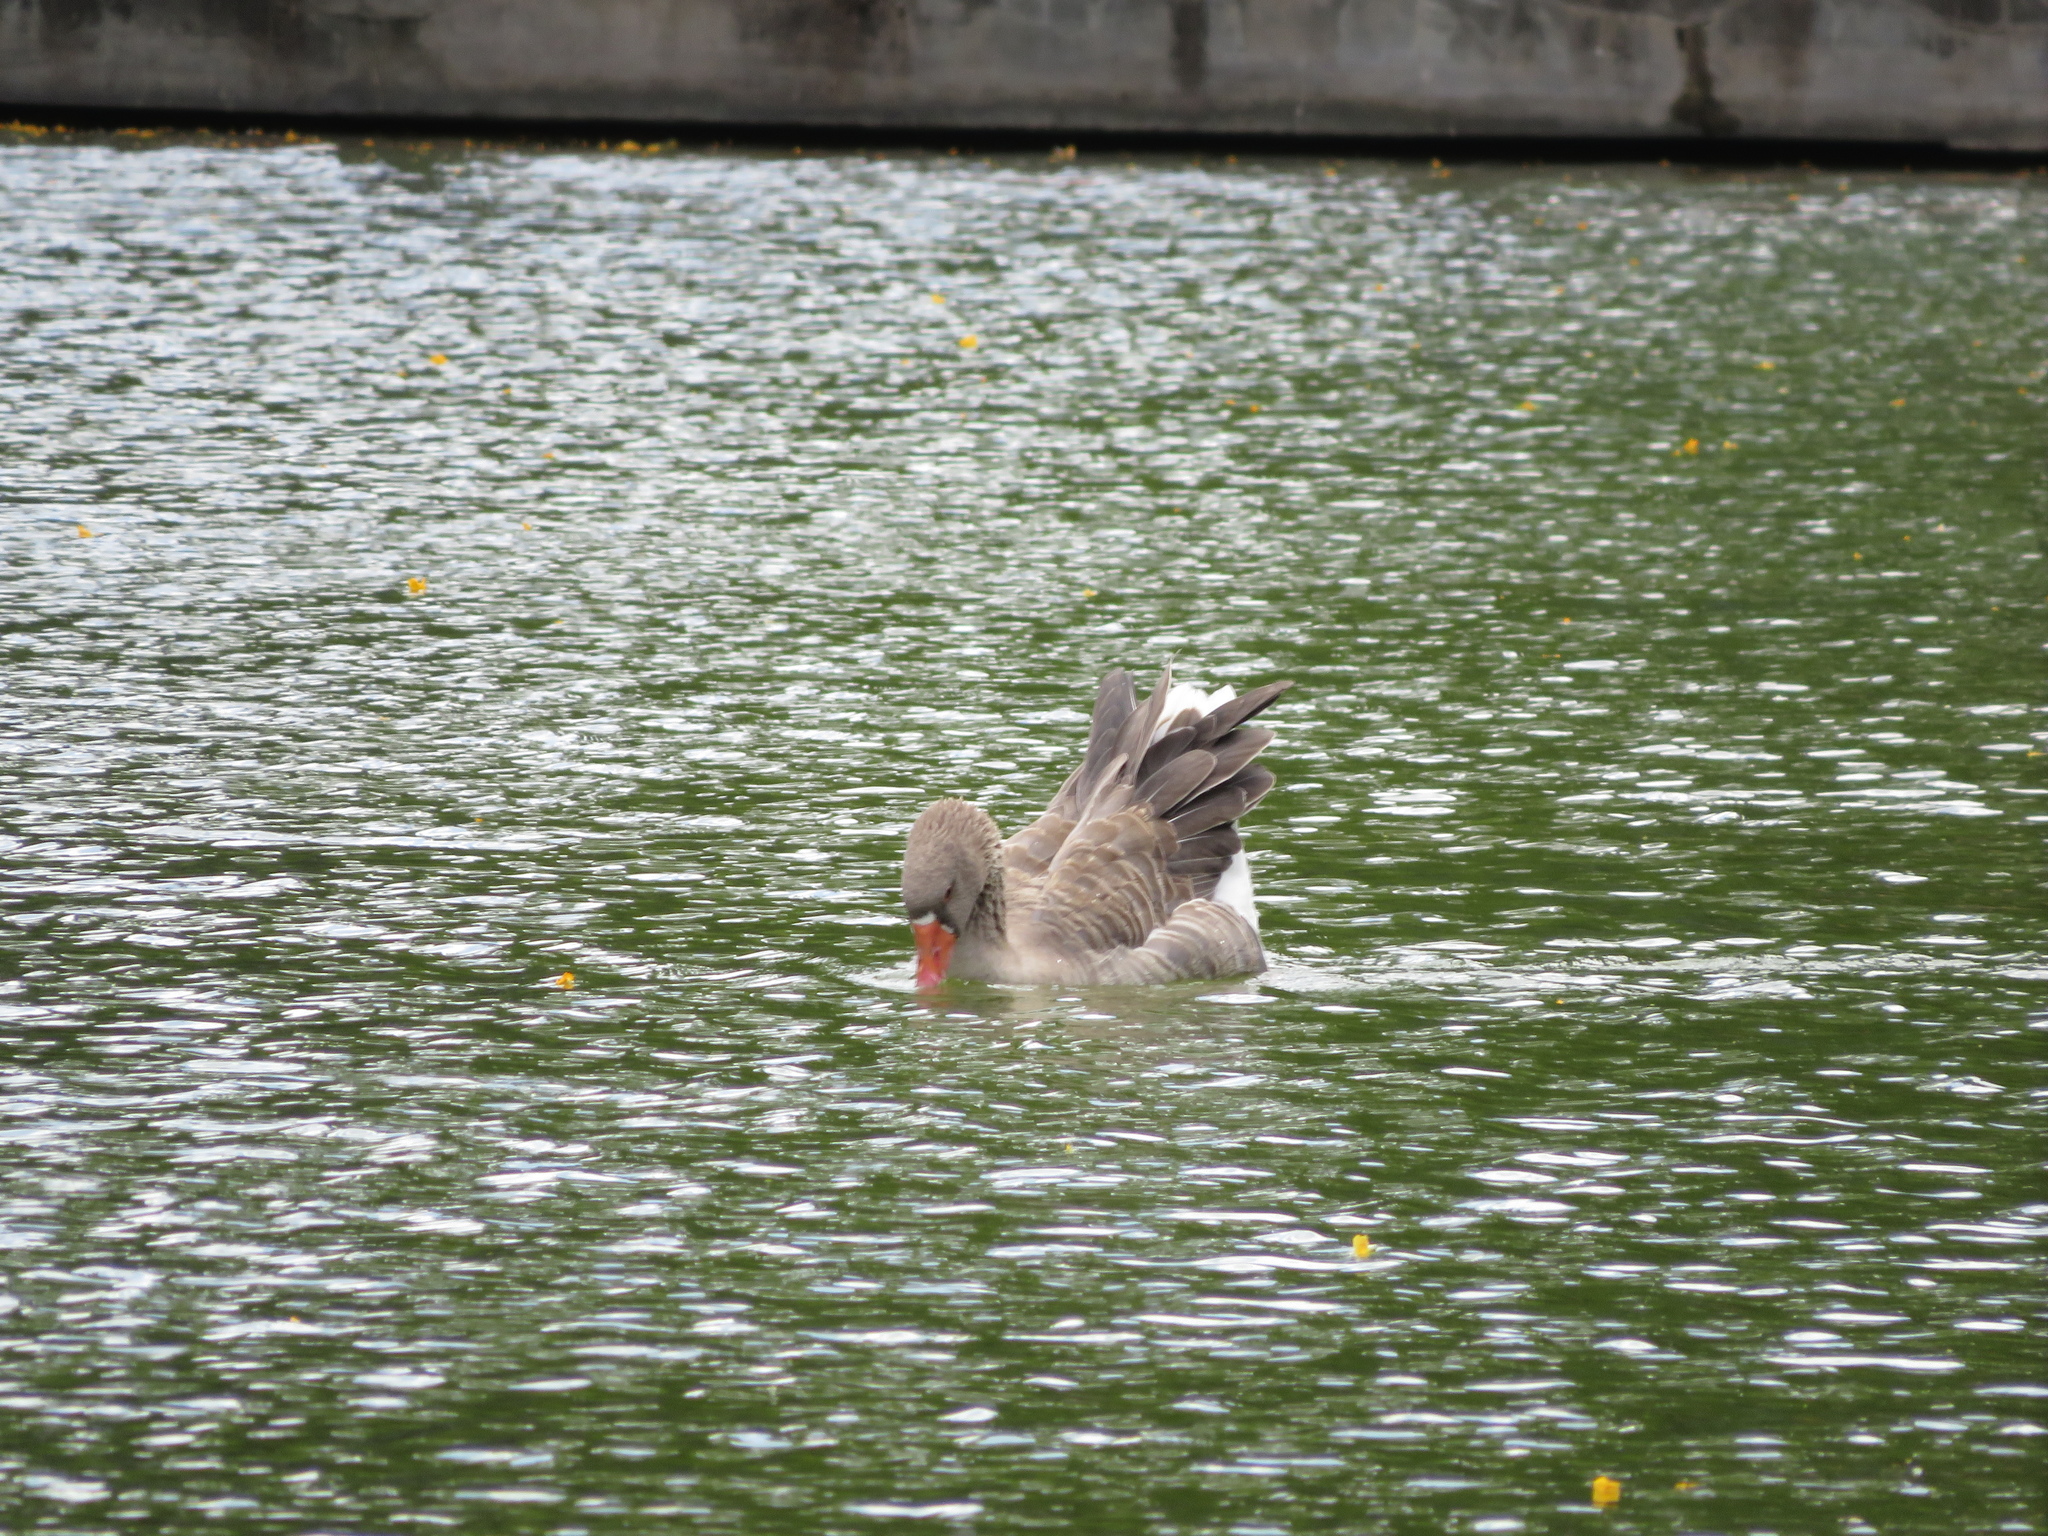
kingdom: Animalia
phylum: Chordata
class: Aves
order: Anseriformes
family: Anatidae
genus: Anser
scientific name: Anser anser
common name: Greylag goose
